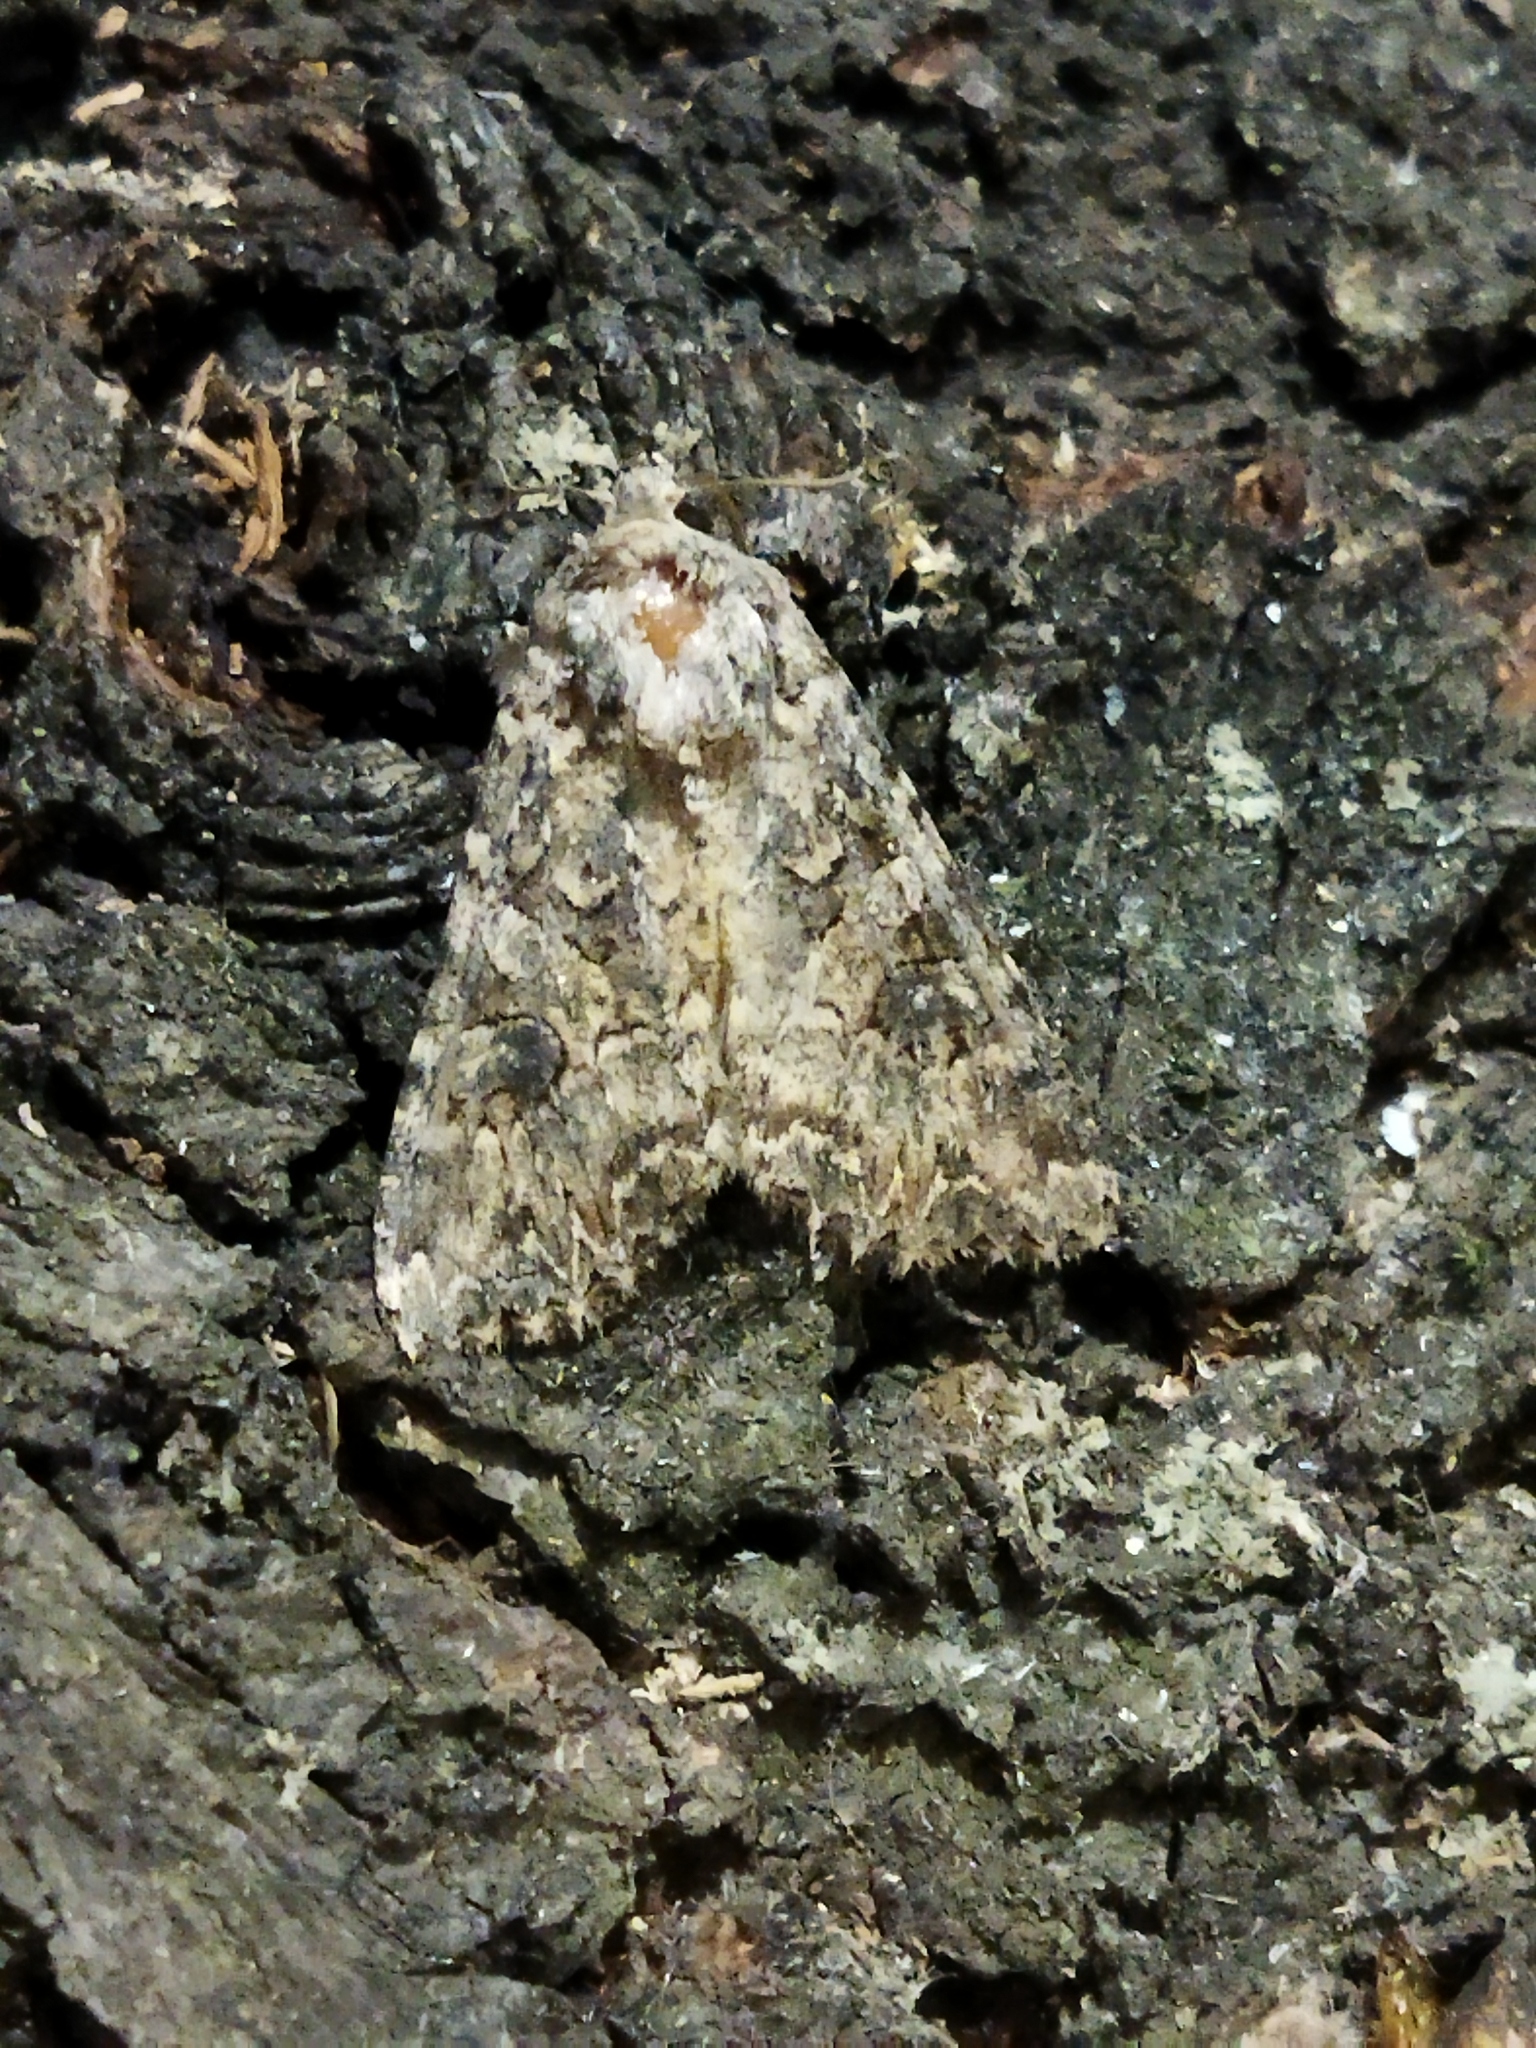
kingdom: Animalia
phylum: Arthropoda
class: Insecta
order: Lepidoptera
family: Noctuidae
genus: Anarta
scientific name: Anarta trifolii
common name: Clover cutworm moth
